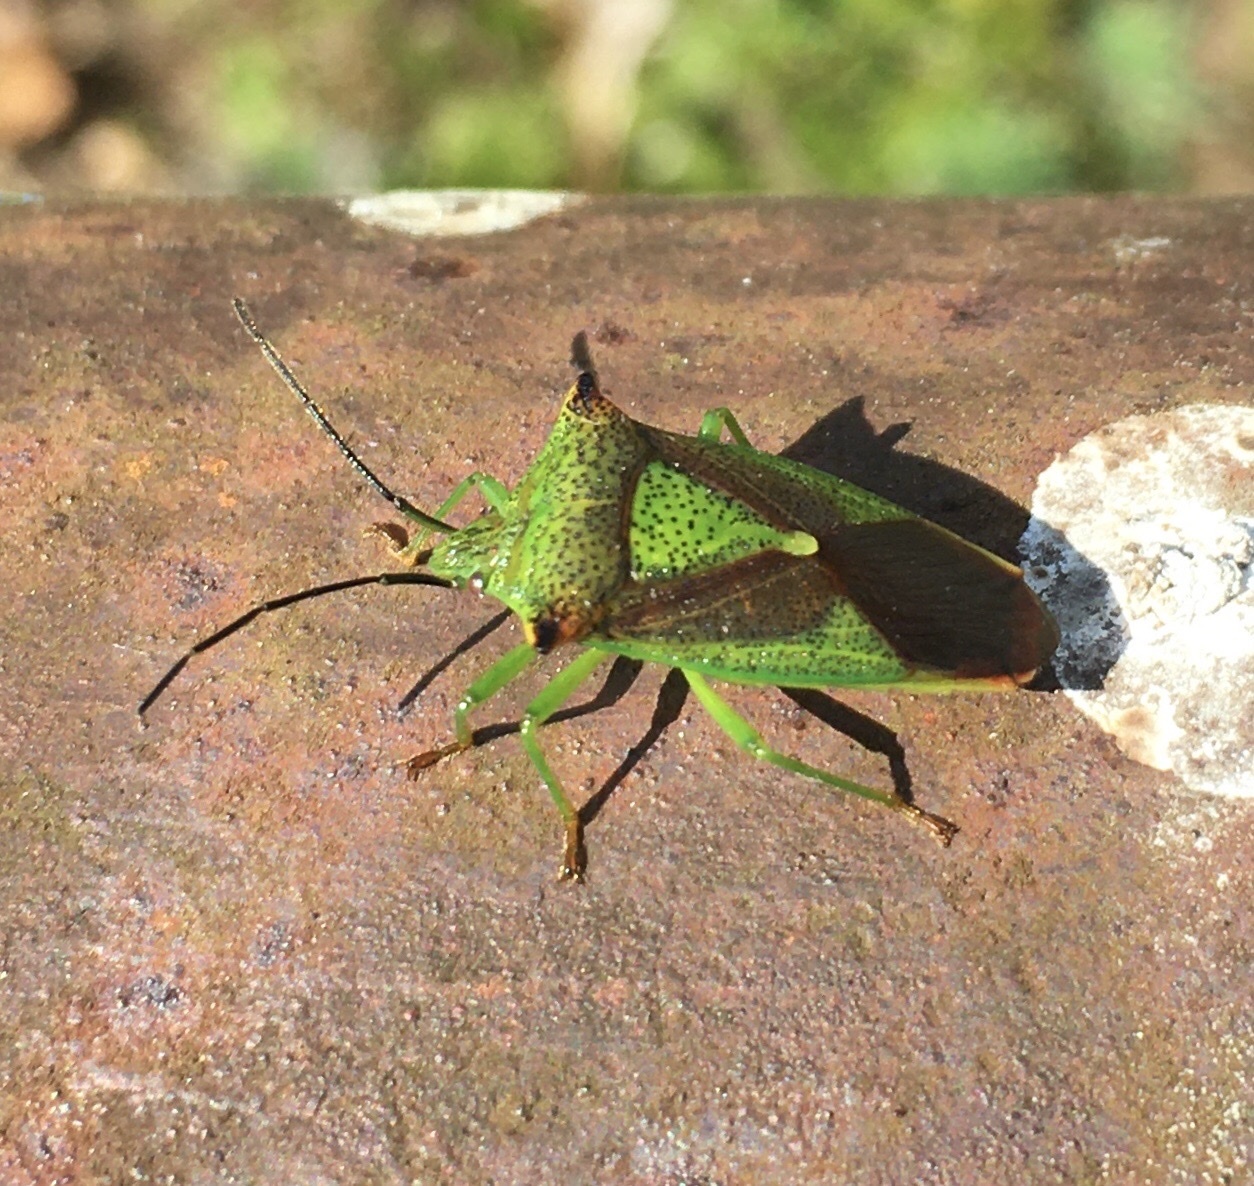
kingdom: Animalia
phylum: Arthropoda
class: Insecta
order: Hemiptera
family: Acanthosomatidae
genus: Acanthosoma
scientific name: Acanthosoma haemorrhoidale
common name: Hawthorn shieldbug
